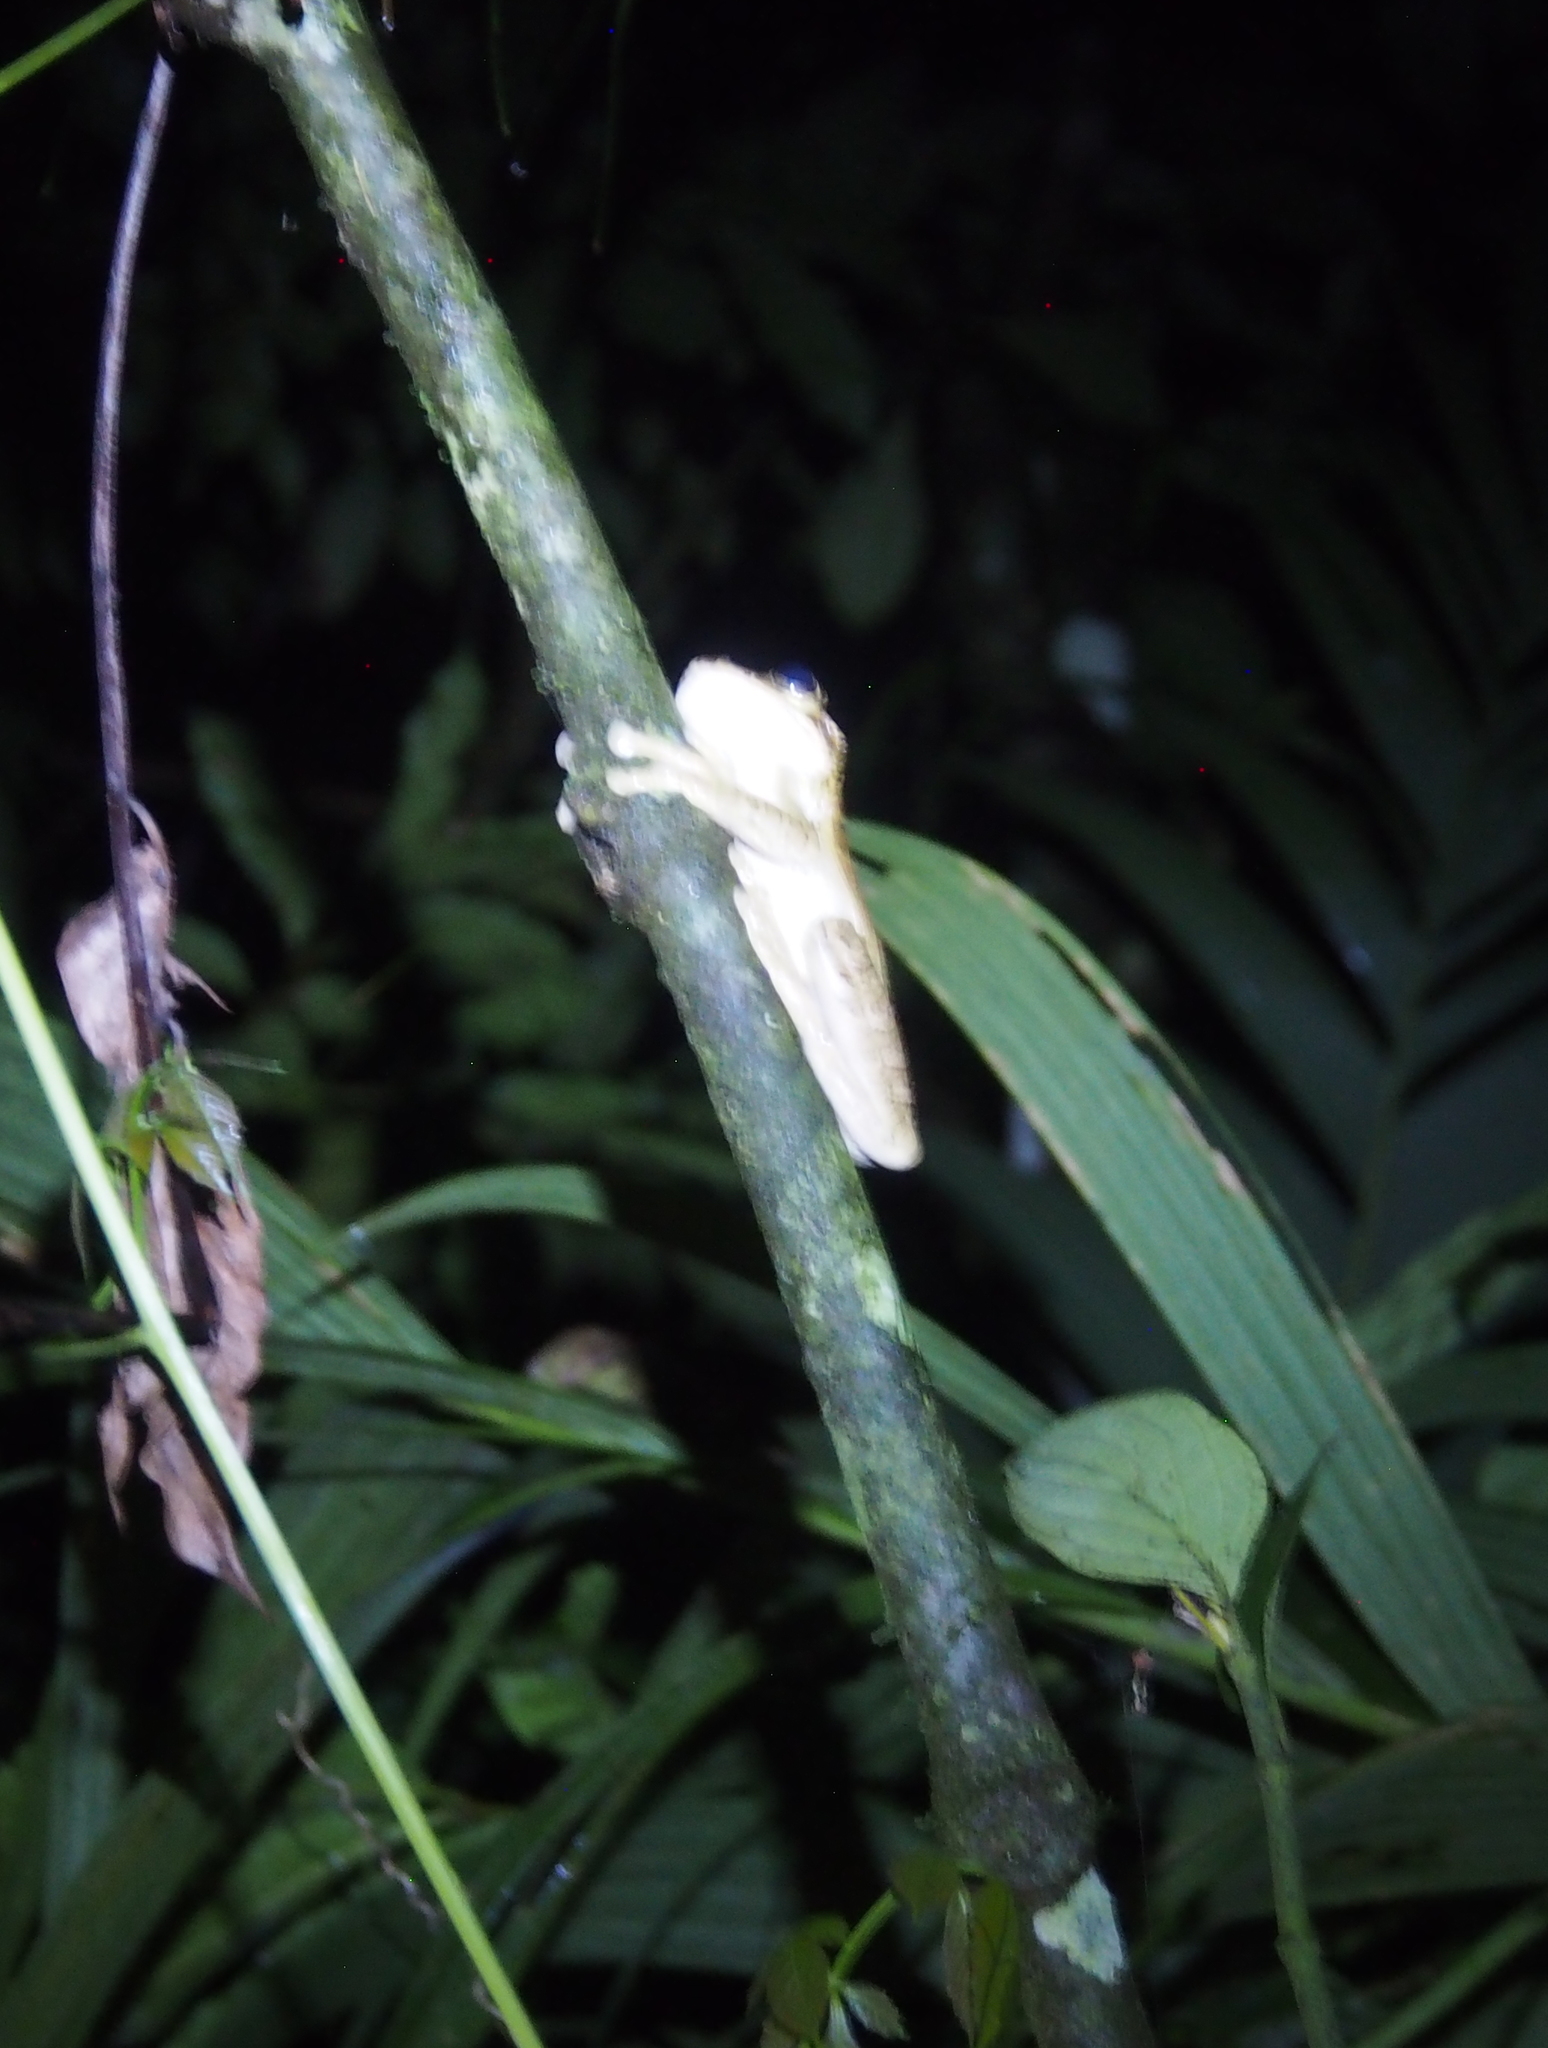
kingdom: Animalia
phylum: Chordata
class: Amphibia
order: Anura
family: Hylidae
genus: Smilisca
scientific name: Smilisca manisorum
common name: Masked tree frog
